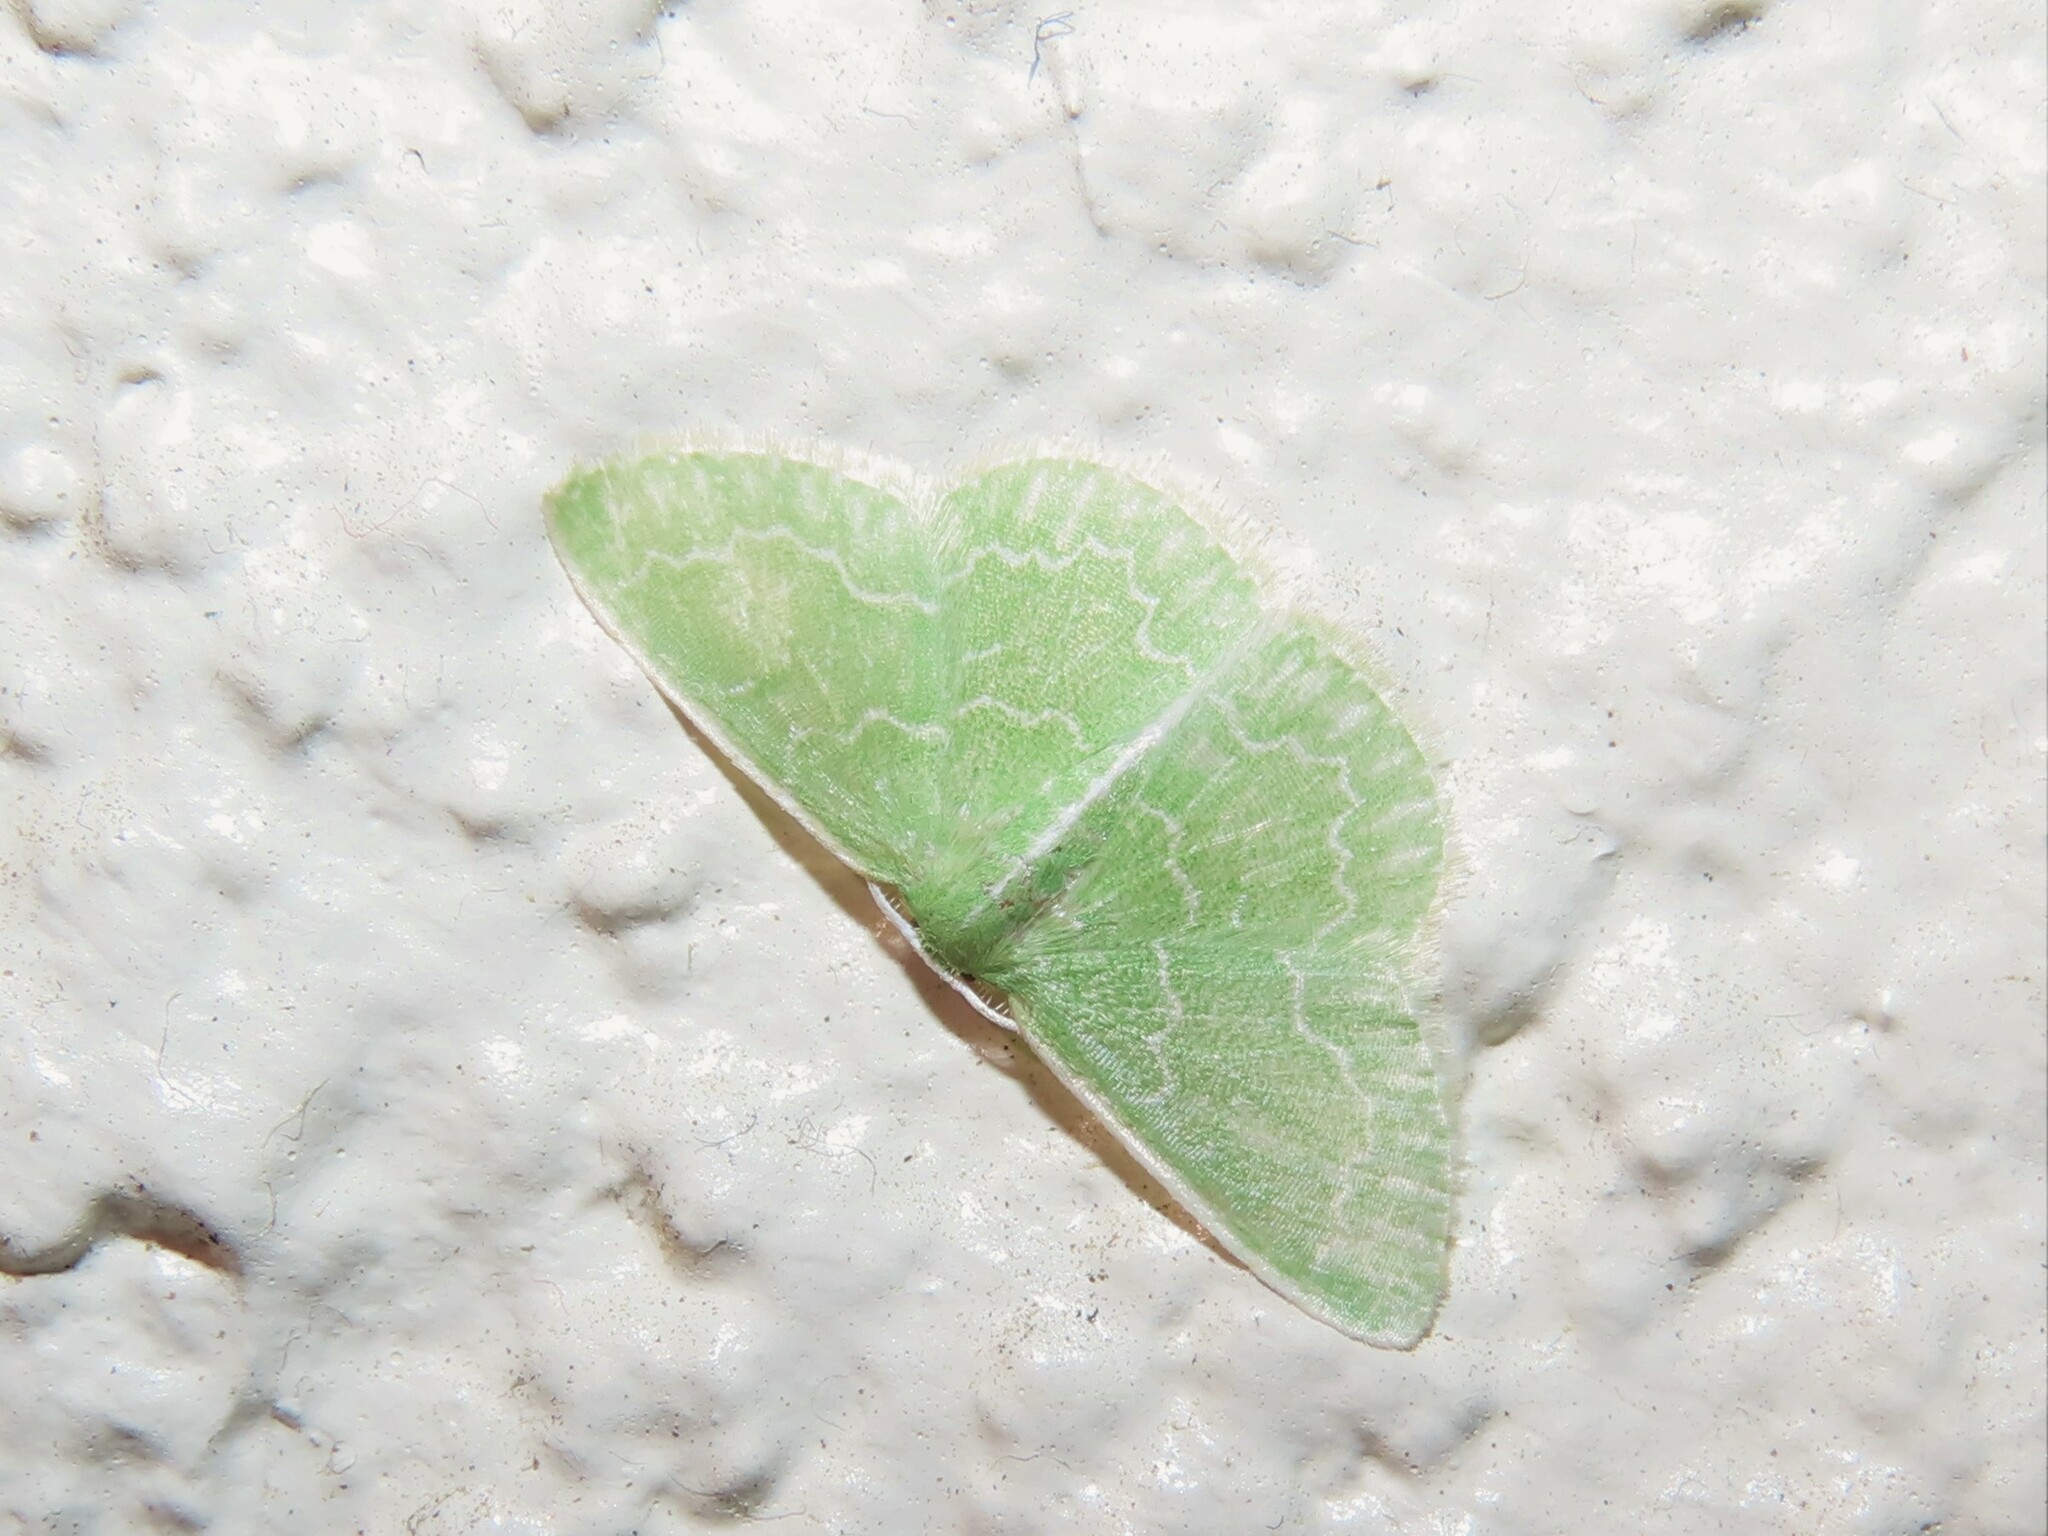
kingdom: Animalia
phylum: Arthropoda
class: Insecta
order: Lepidoptera
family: Geometridae
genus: Synchlora
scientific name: Synchlora frondaria
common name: Southern emerald
